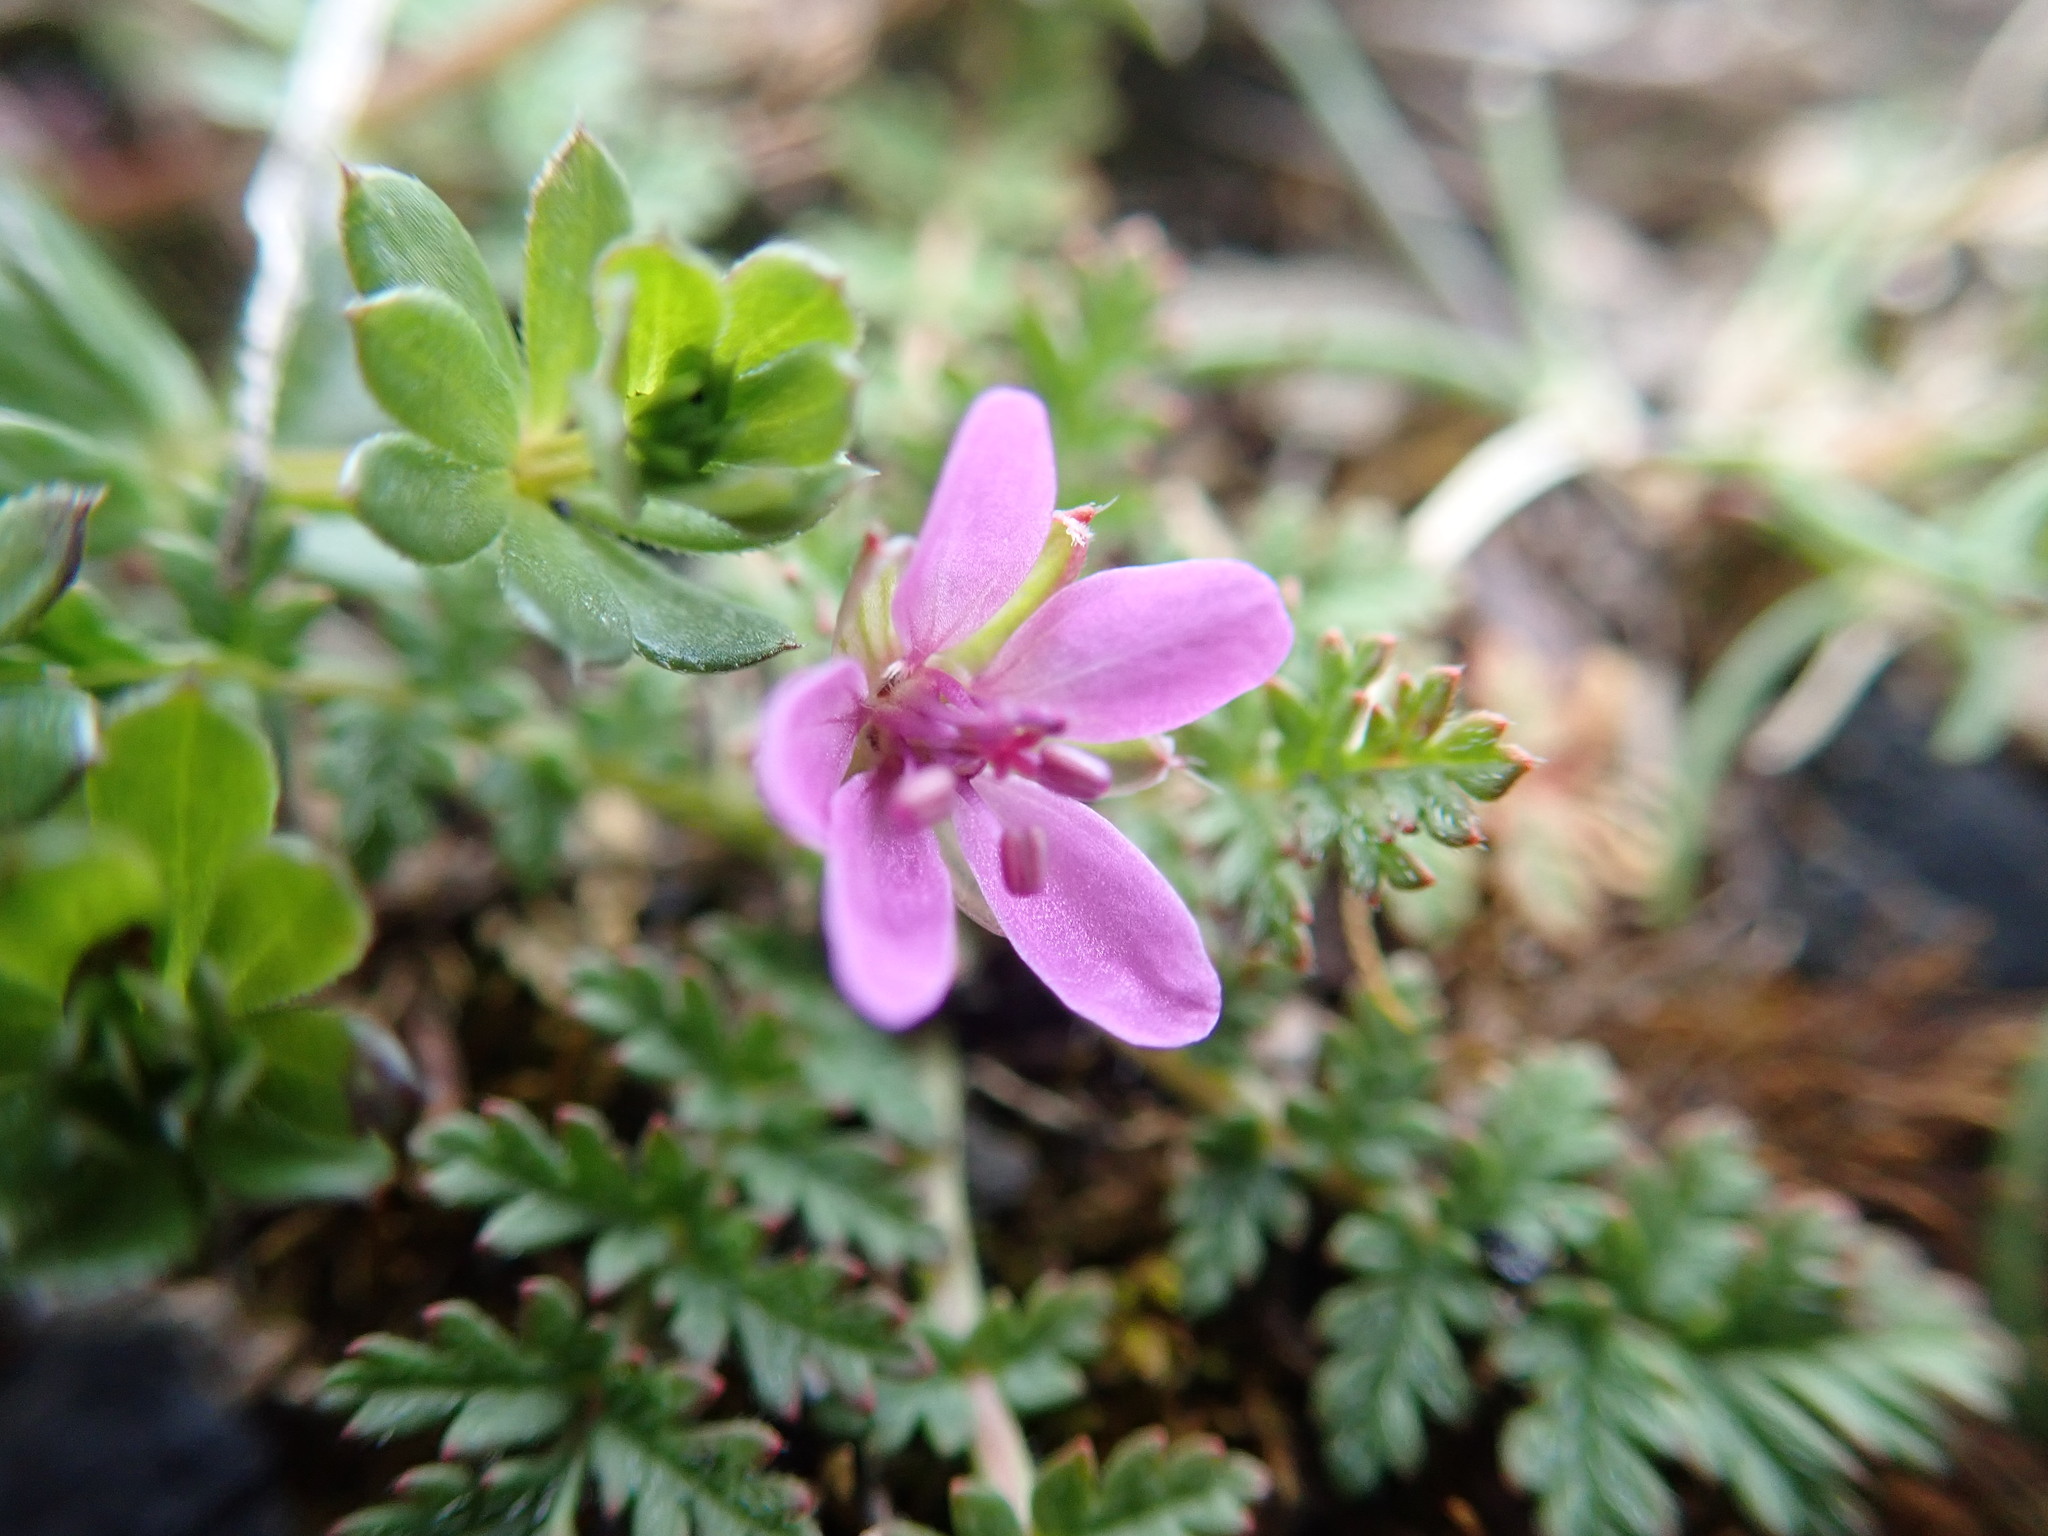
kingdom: Plantae
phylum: Tracheophyta
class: Magnoliopsida
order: Geraniales
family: Geraniaceae
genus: Erodium
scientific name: Erodium cicutarium
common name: Common stork's-bill
